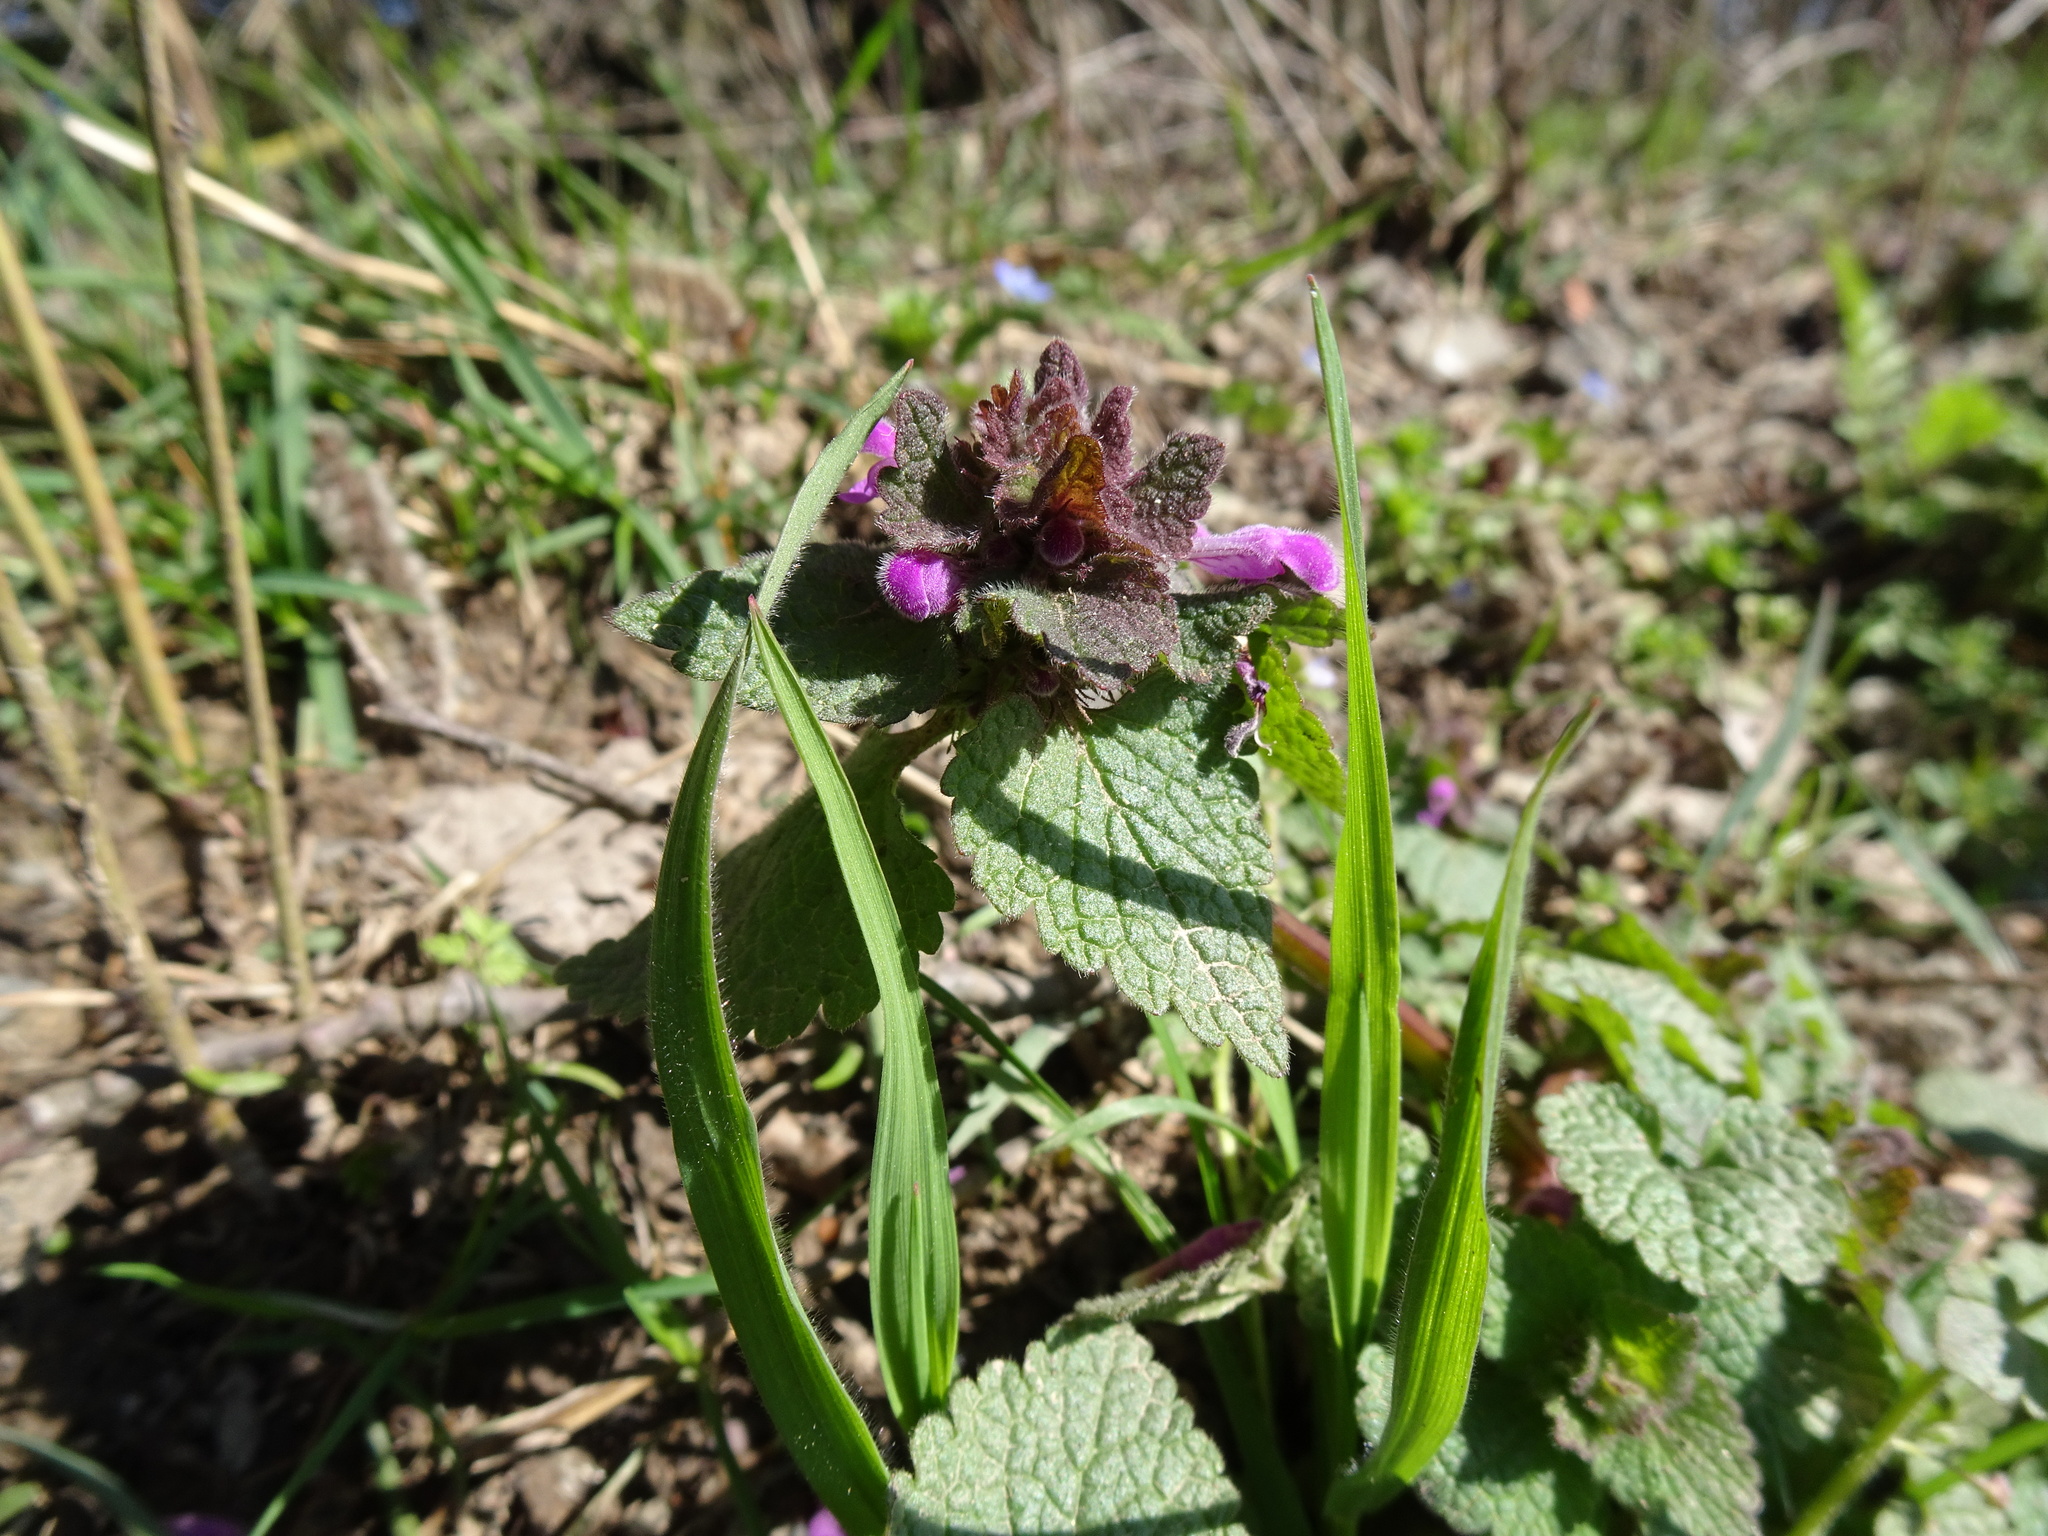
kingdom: Plantae
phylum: Tracheophyta
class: Magnoliopsida
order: Lamiales
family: Lamiaceae
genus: Lamium
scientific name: Lamium purpureum
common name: Red dead-nettle
